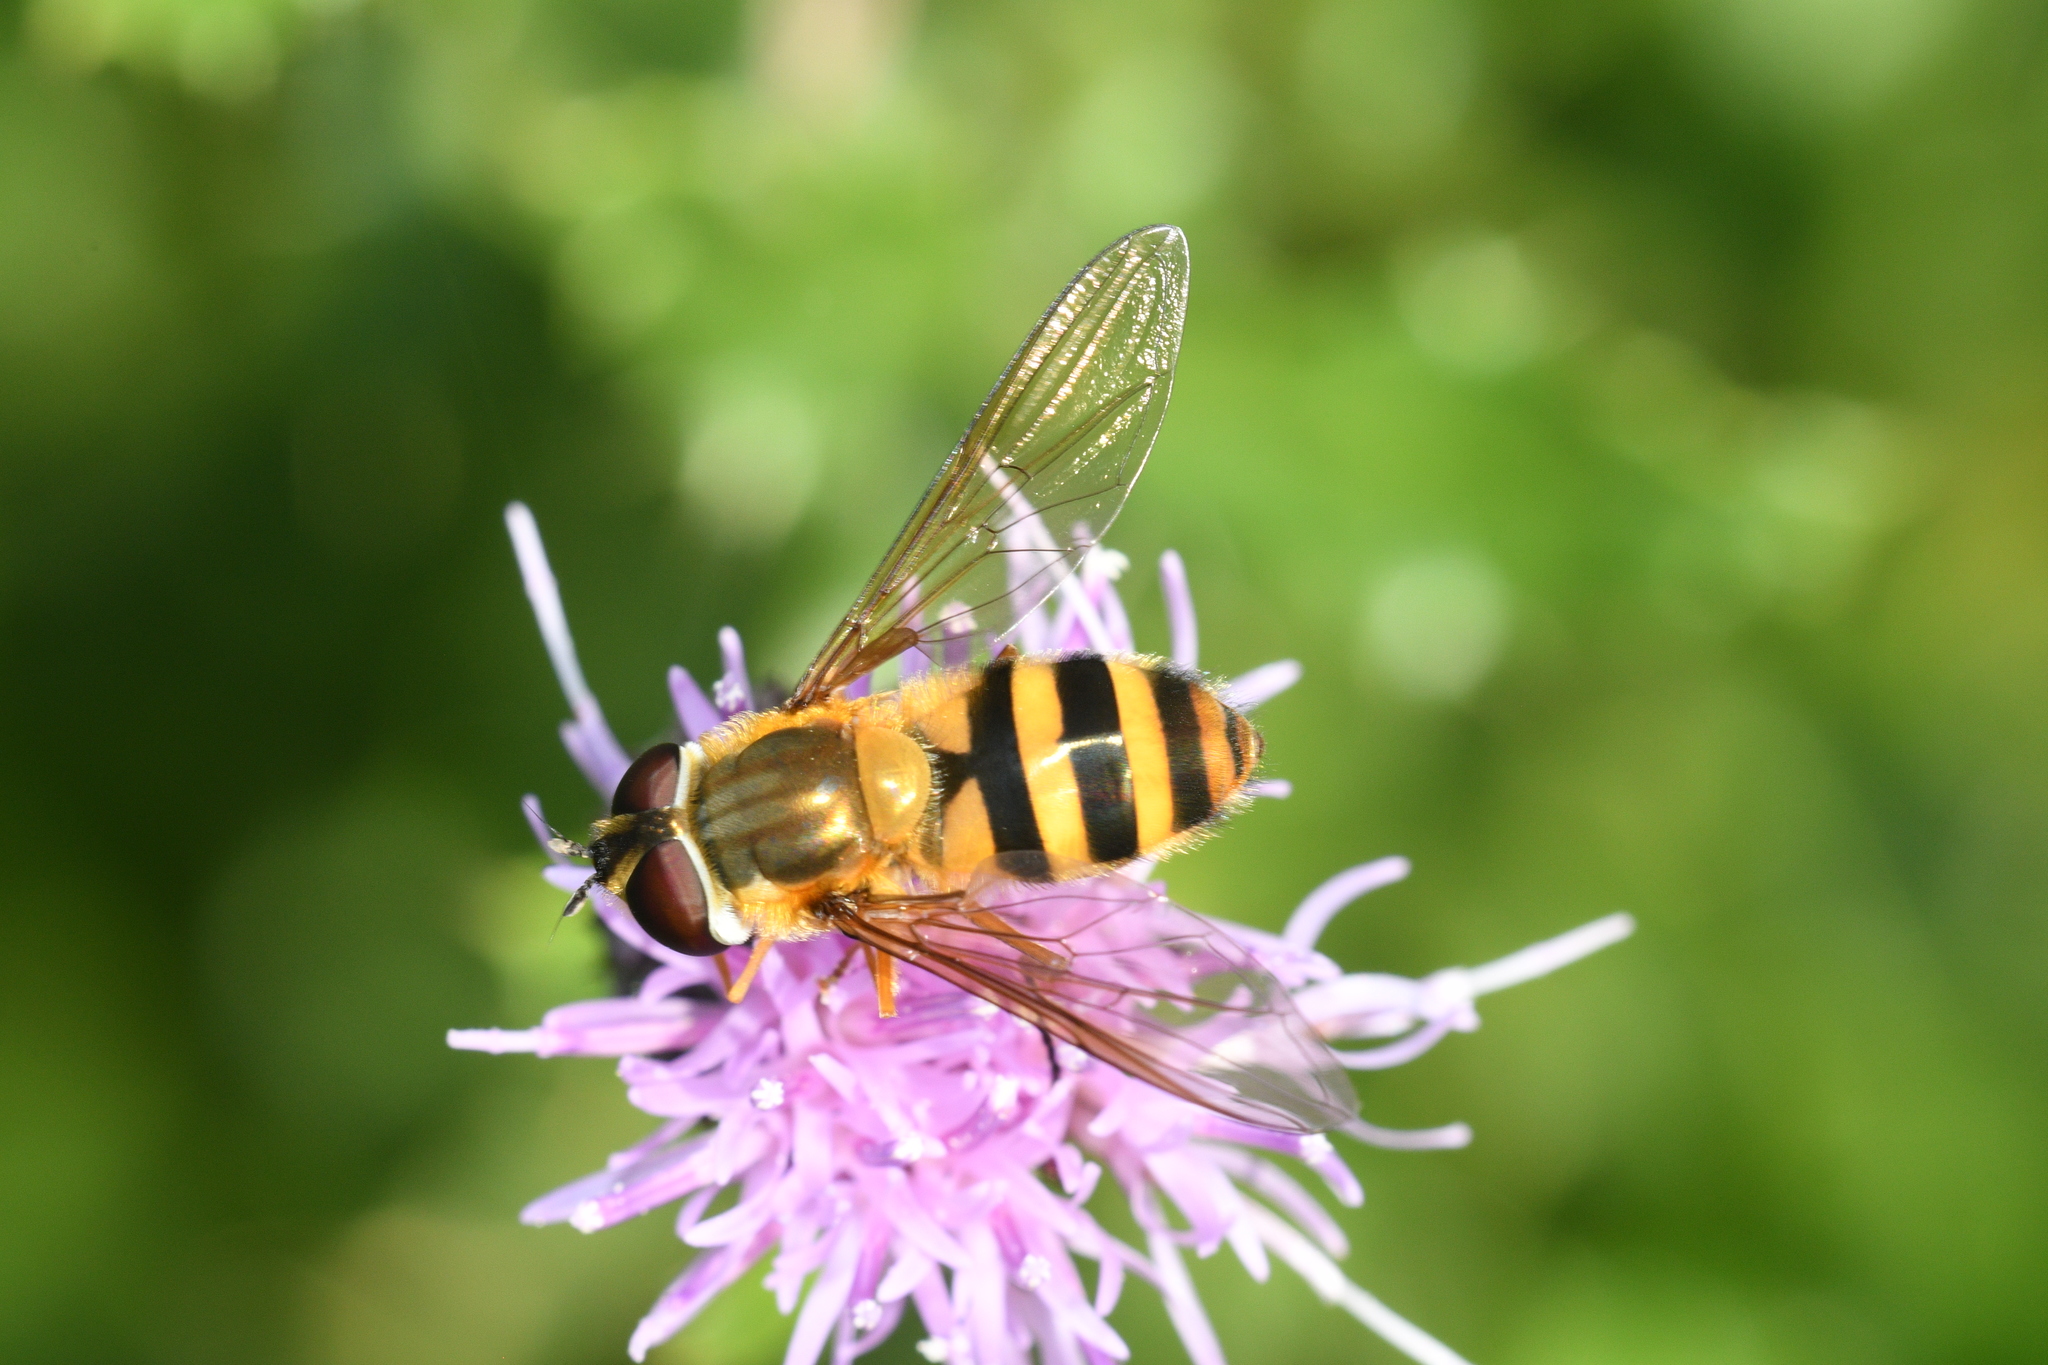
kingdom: Animalia
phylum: Arthropoda
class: Insecta
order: Diptera
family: Syrphidae
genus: Epistrophe
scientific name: Epistrophe grossulariae
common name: Black-horned smoothtail
